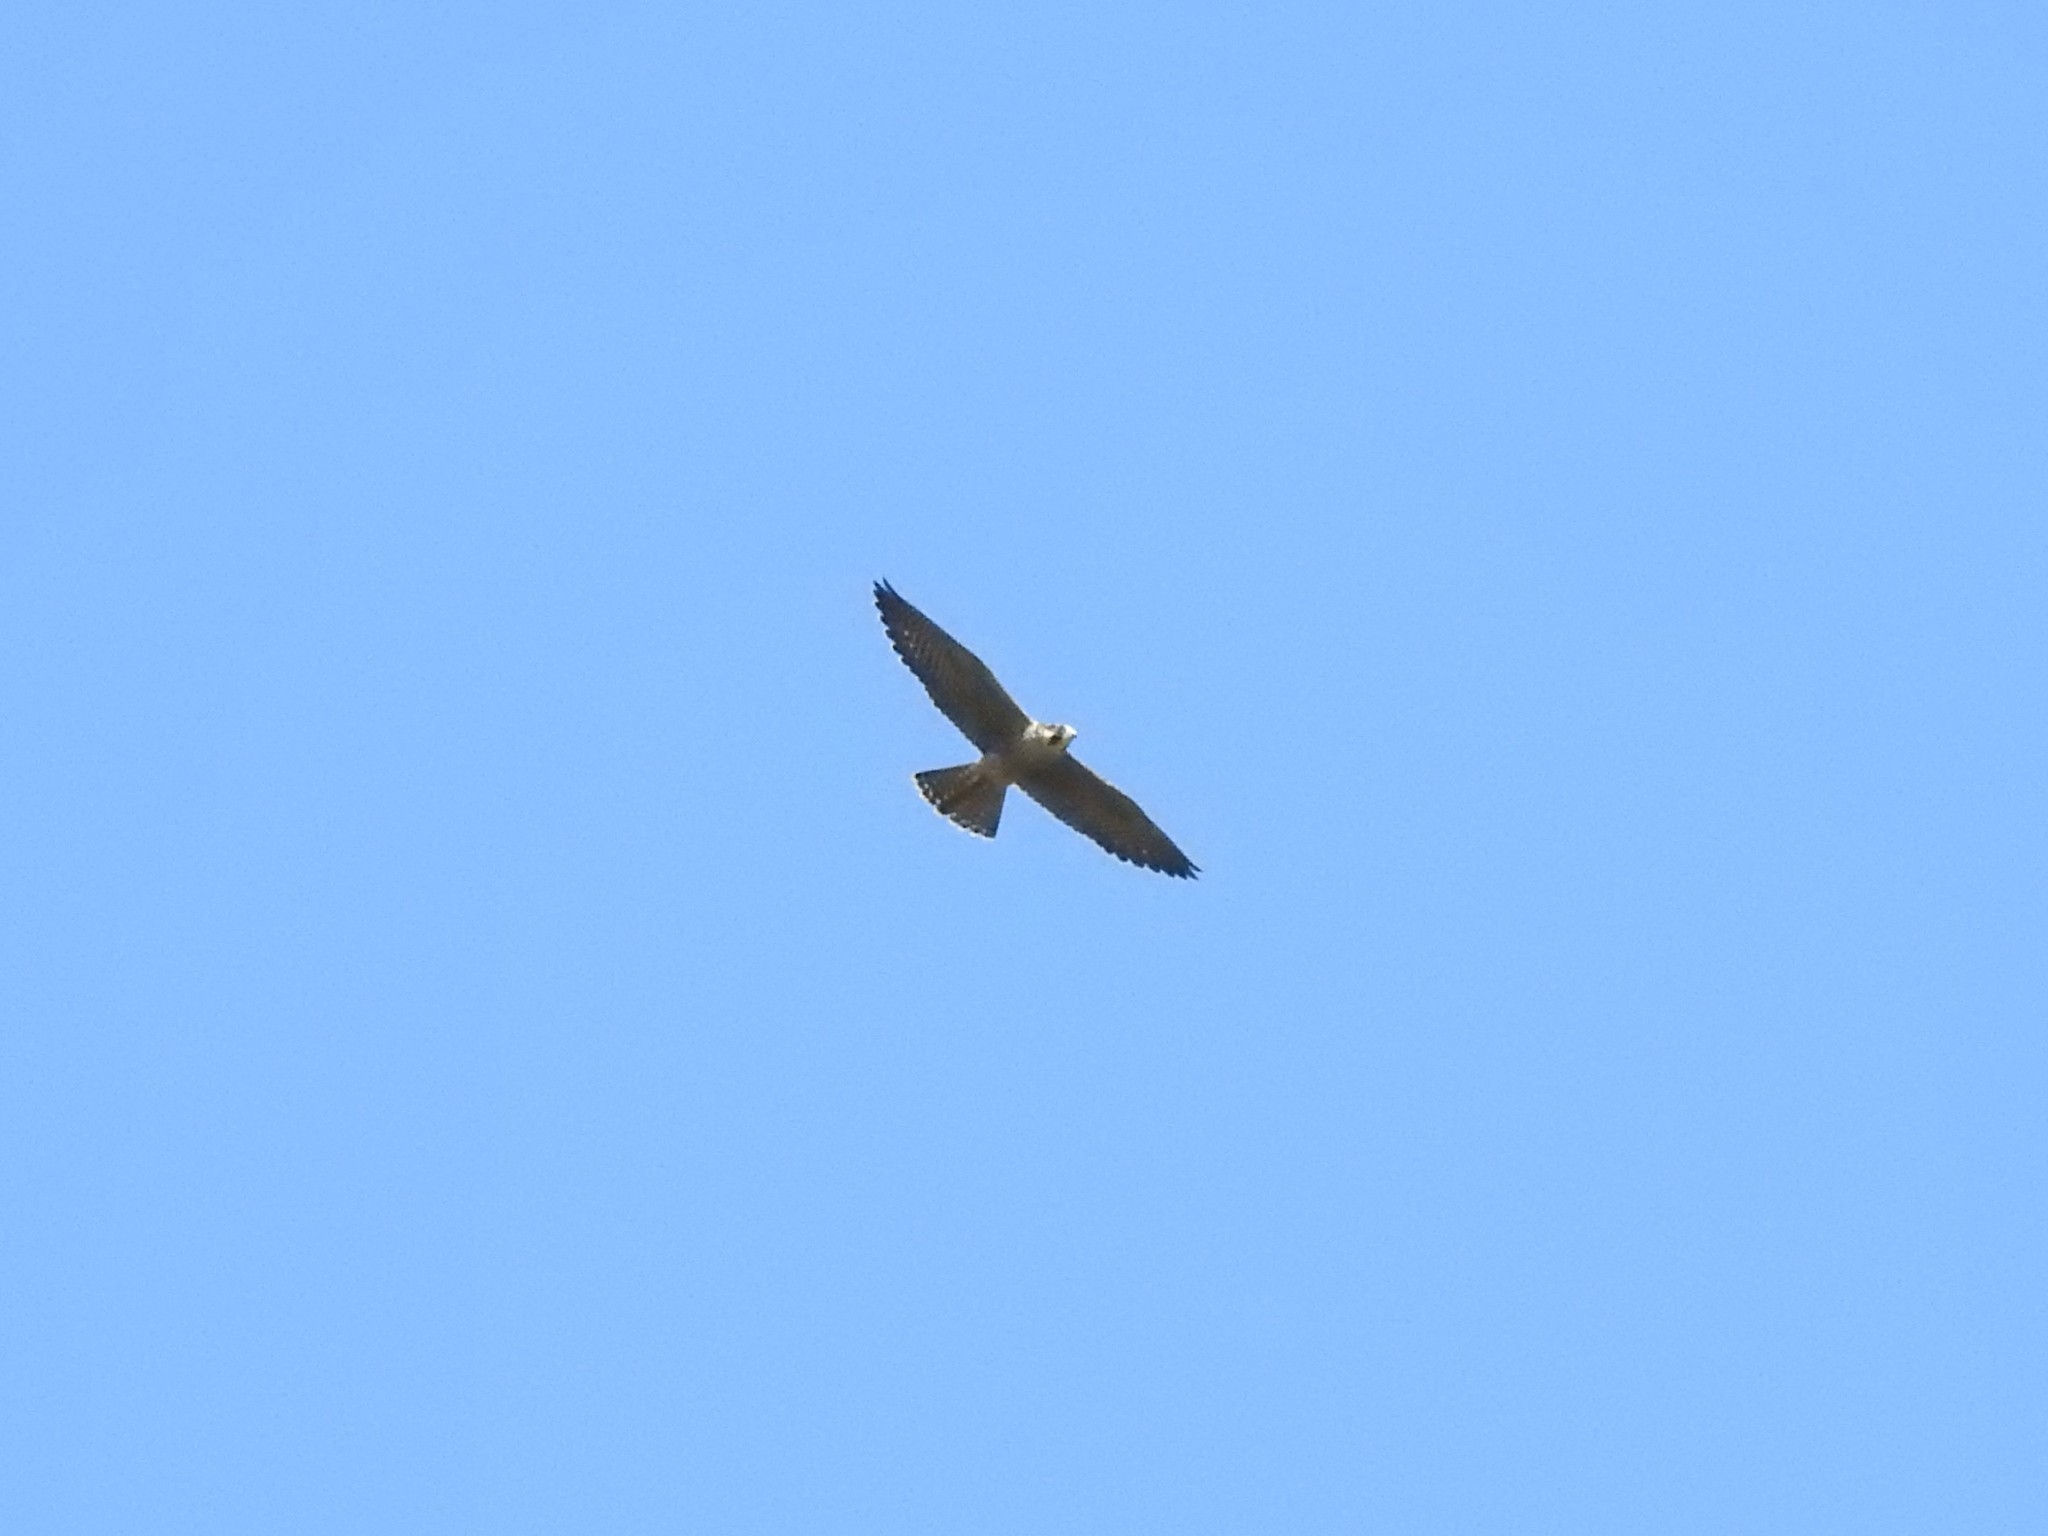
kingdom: Animalia
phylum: Chordata
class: Aves
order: Falconiformes
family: Falconidae
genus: Falco
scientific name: Falco peregrinus
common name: Peregrine falcon
